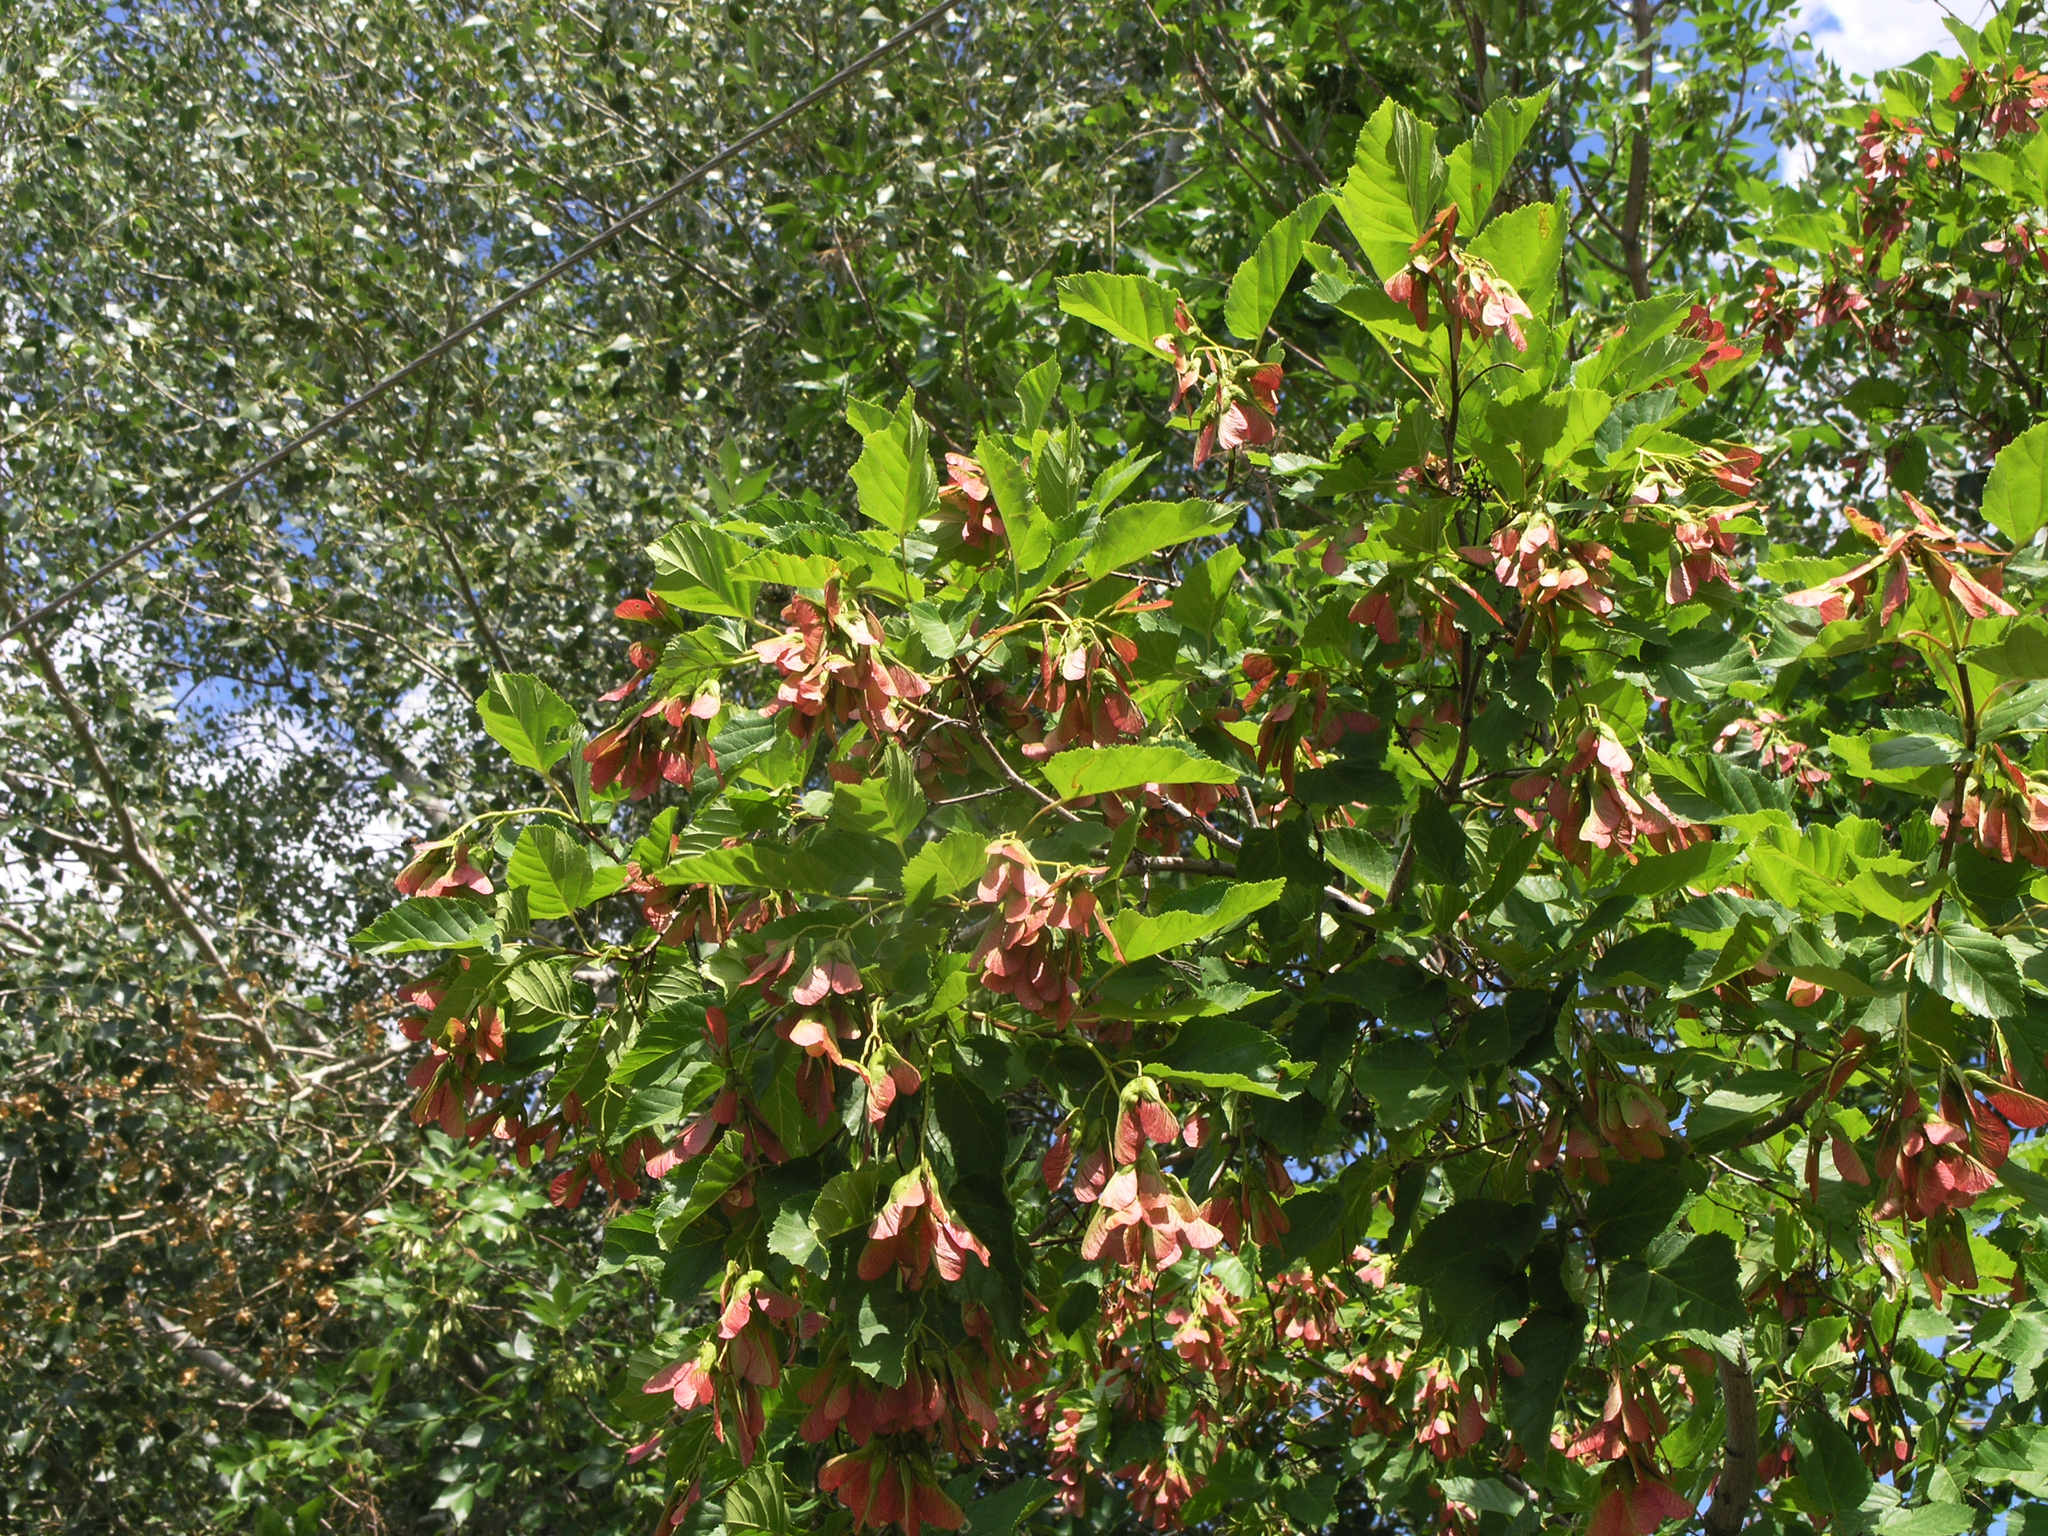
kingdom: Plantae
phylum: Tracheophyta
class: Magnoliopsida
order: Sapindales
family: Sapindaceae
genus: Acer
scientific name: Acer tataricum
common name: Tartar maple
